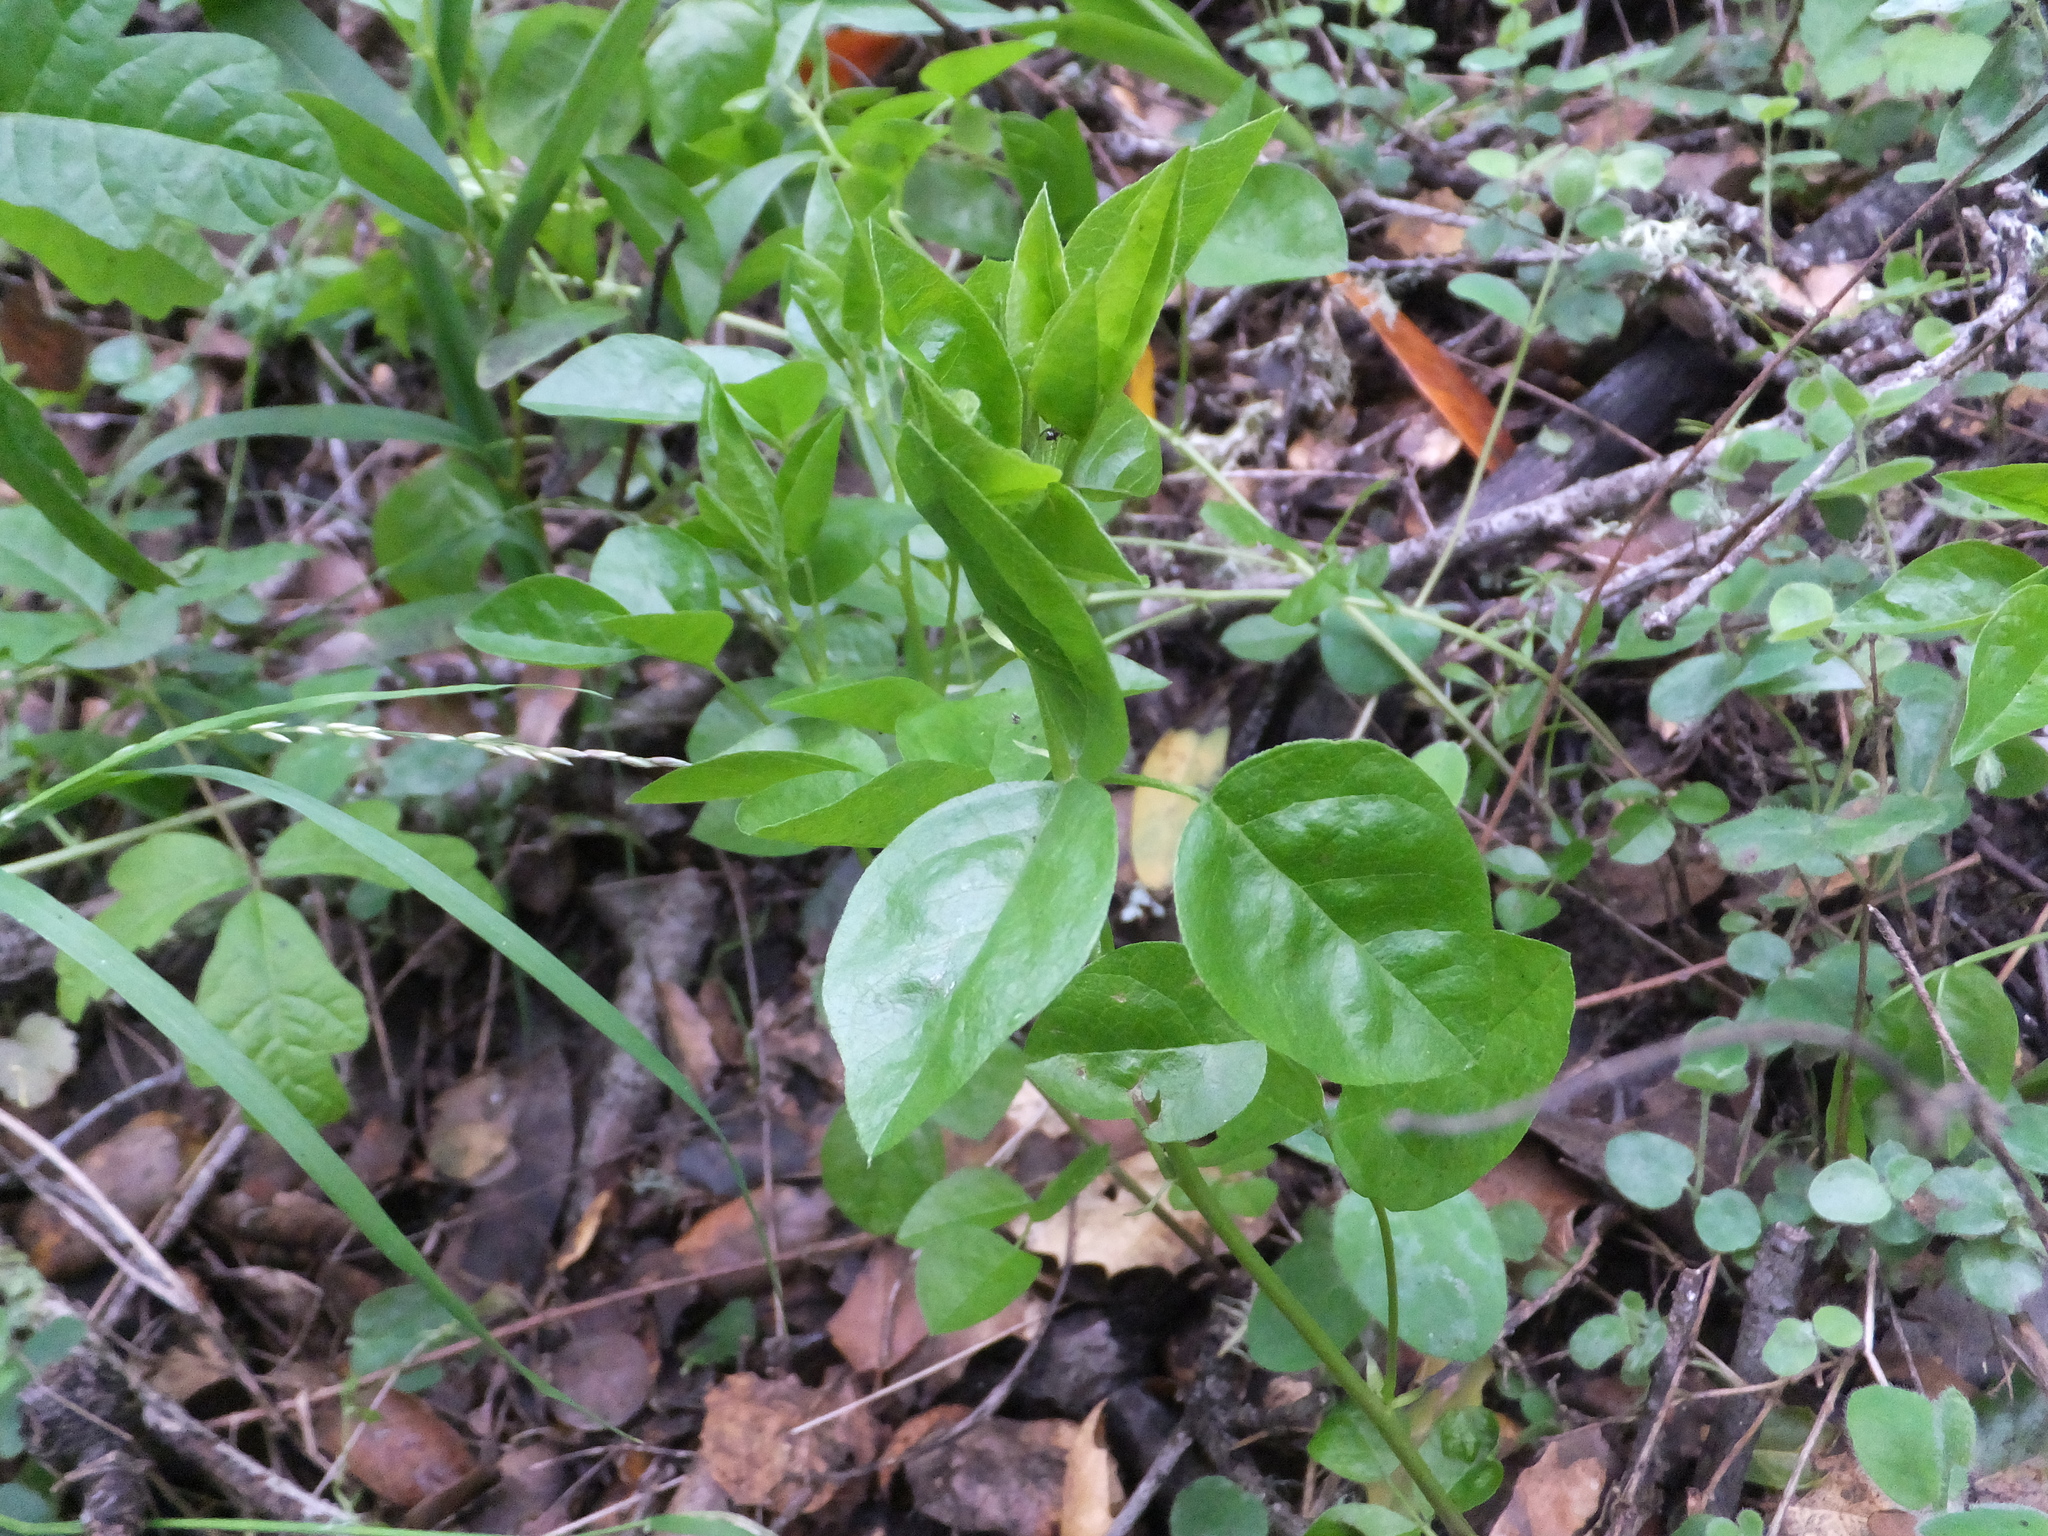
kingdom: Plantae
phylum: Tracheophyta
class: Magnoliopsida
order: Fabales
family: Fabaceae
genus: Rupertia
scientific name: Rupertia physodes
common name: California-tea
